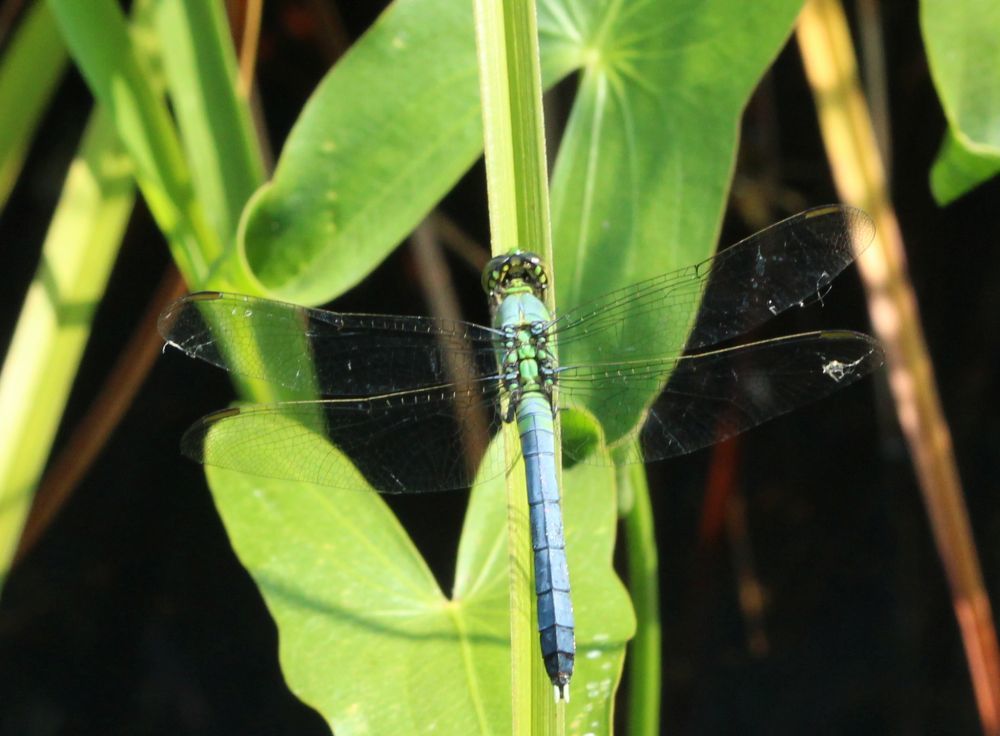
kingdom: Animalia
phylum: Arthropoda
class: Insecta
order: Odonata
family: Libellulidae
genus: Erythemis
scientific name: Erythemis simplicicollis
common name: Eastern pondhawk
